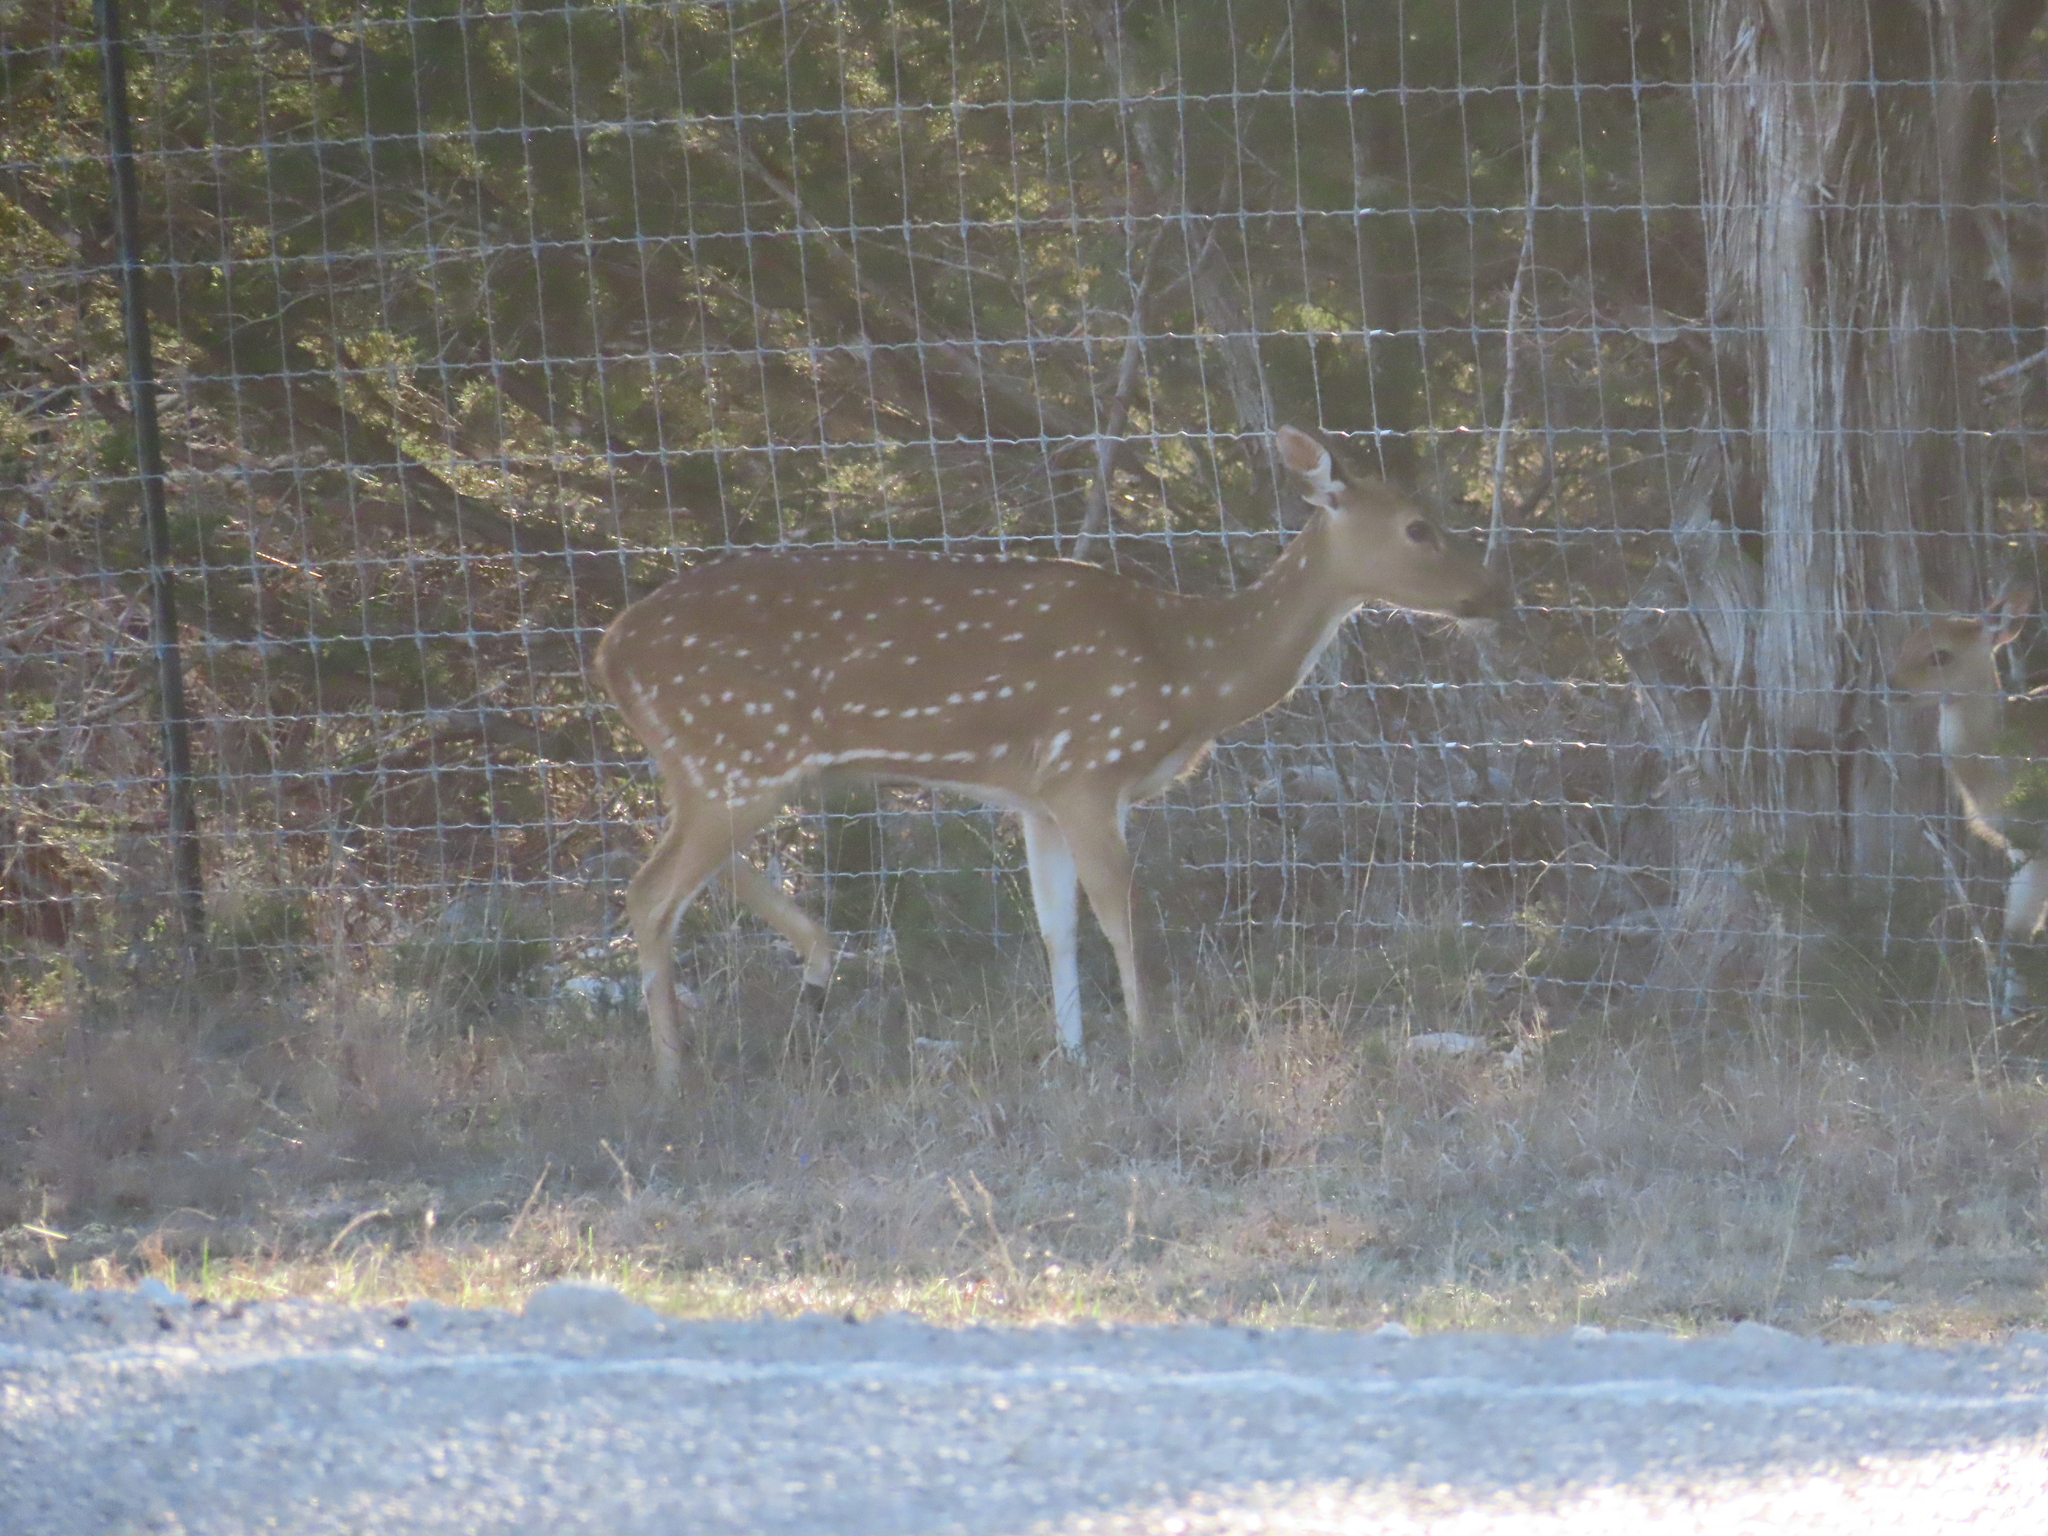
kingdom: Animalia
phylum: Chordata
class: Mammalia
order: Artiodactyla
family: Cervidae
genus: Axis
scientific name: Axis axis
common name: Chital
